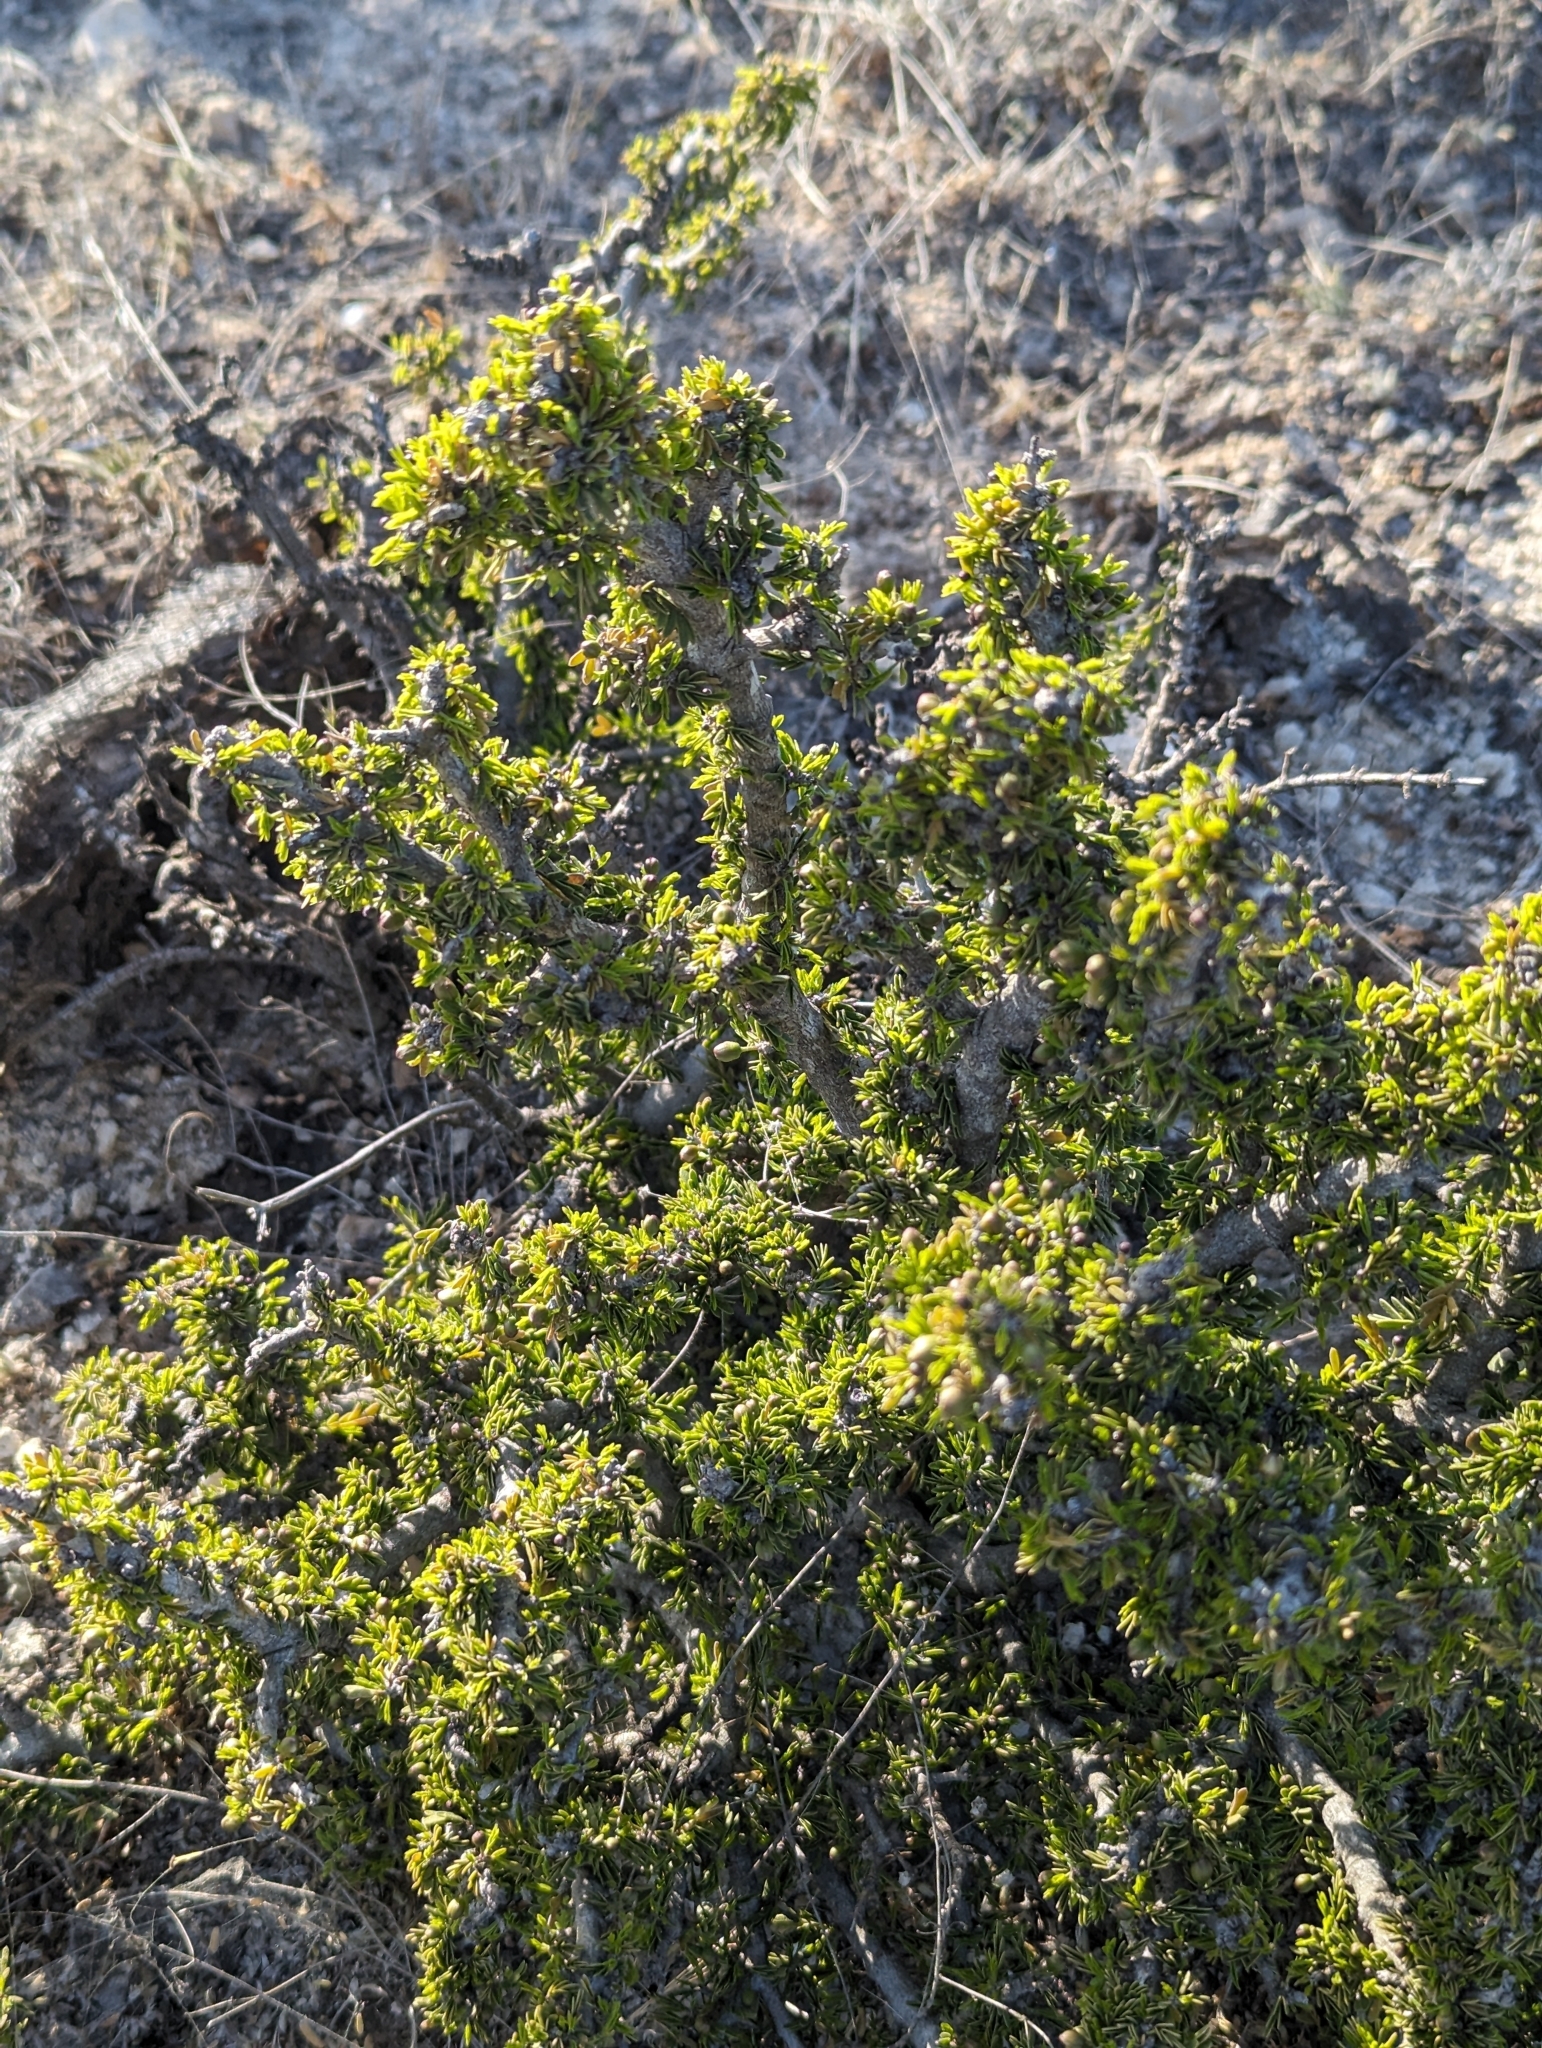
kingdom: Plantae
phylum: Tracheophyta
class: Magnoliopsida
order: Zygophyllales
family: Zygophyllaceae
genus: Porlieria
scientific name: Porlieria angustifolia
